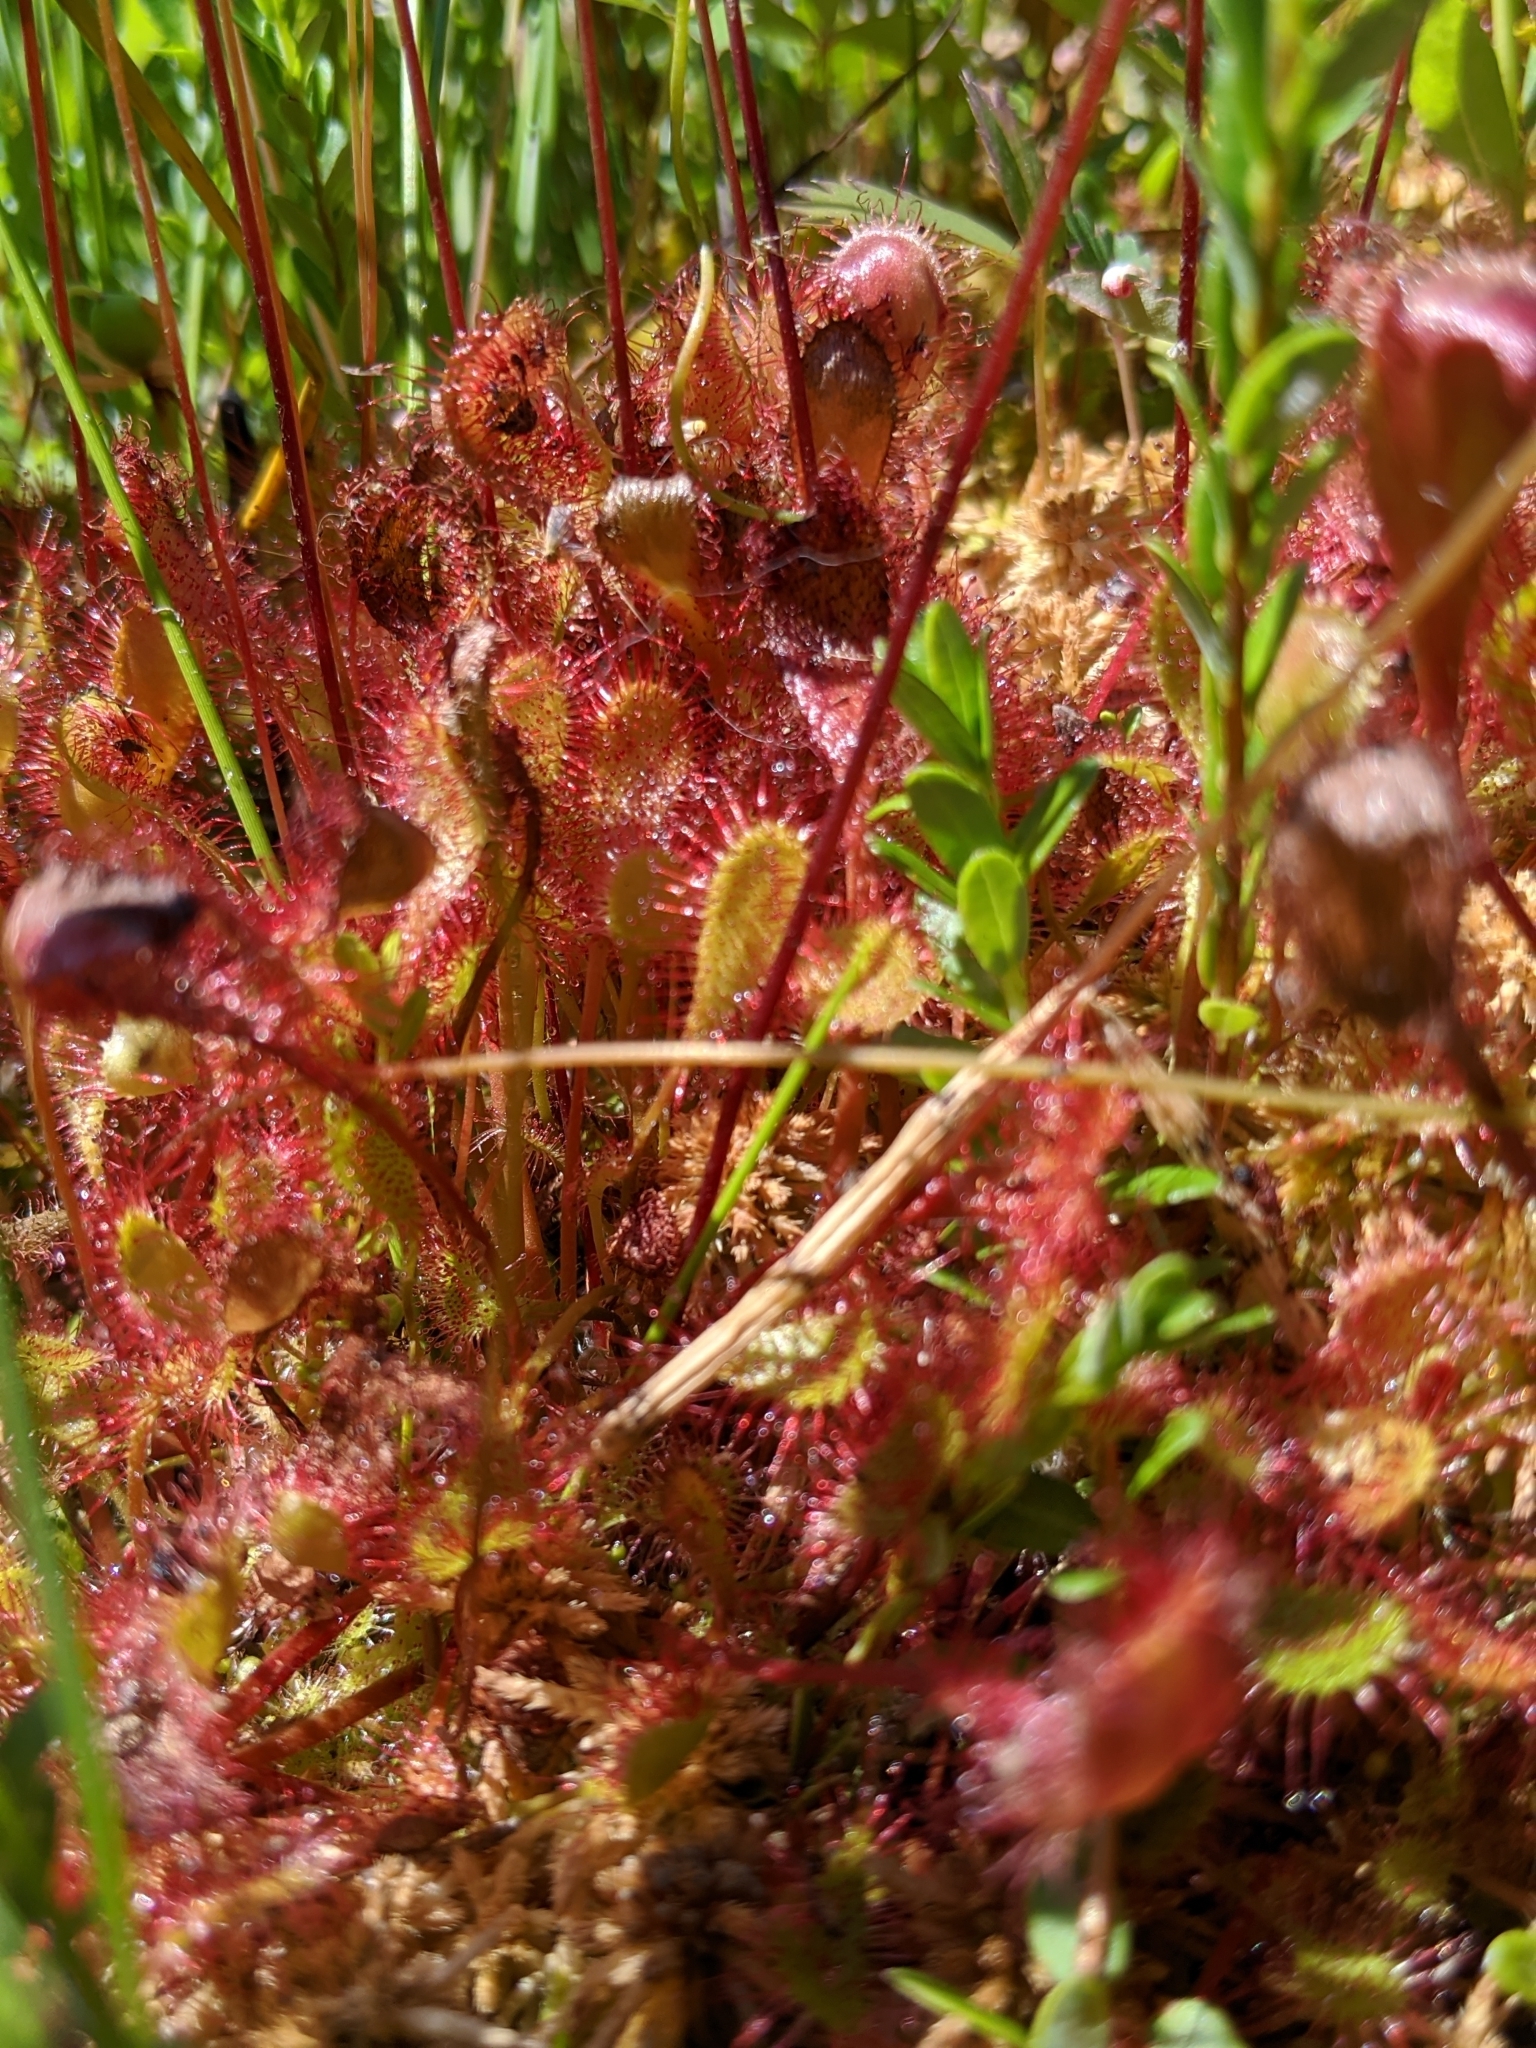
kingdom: Plantae
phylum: Tracheophyta
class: Magnoliopsida
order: Caryophyllales
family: Droseraceae
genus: Drosera
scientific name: Drosera obovata
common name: Ivan's paddle
